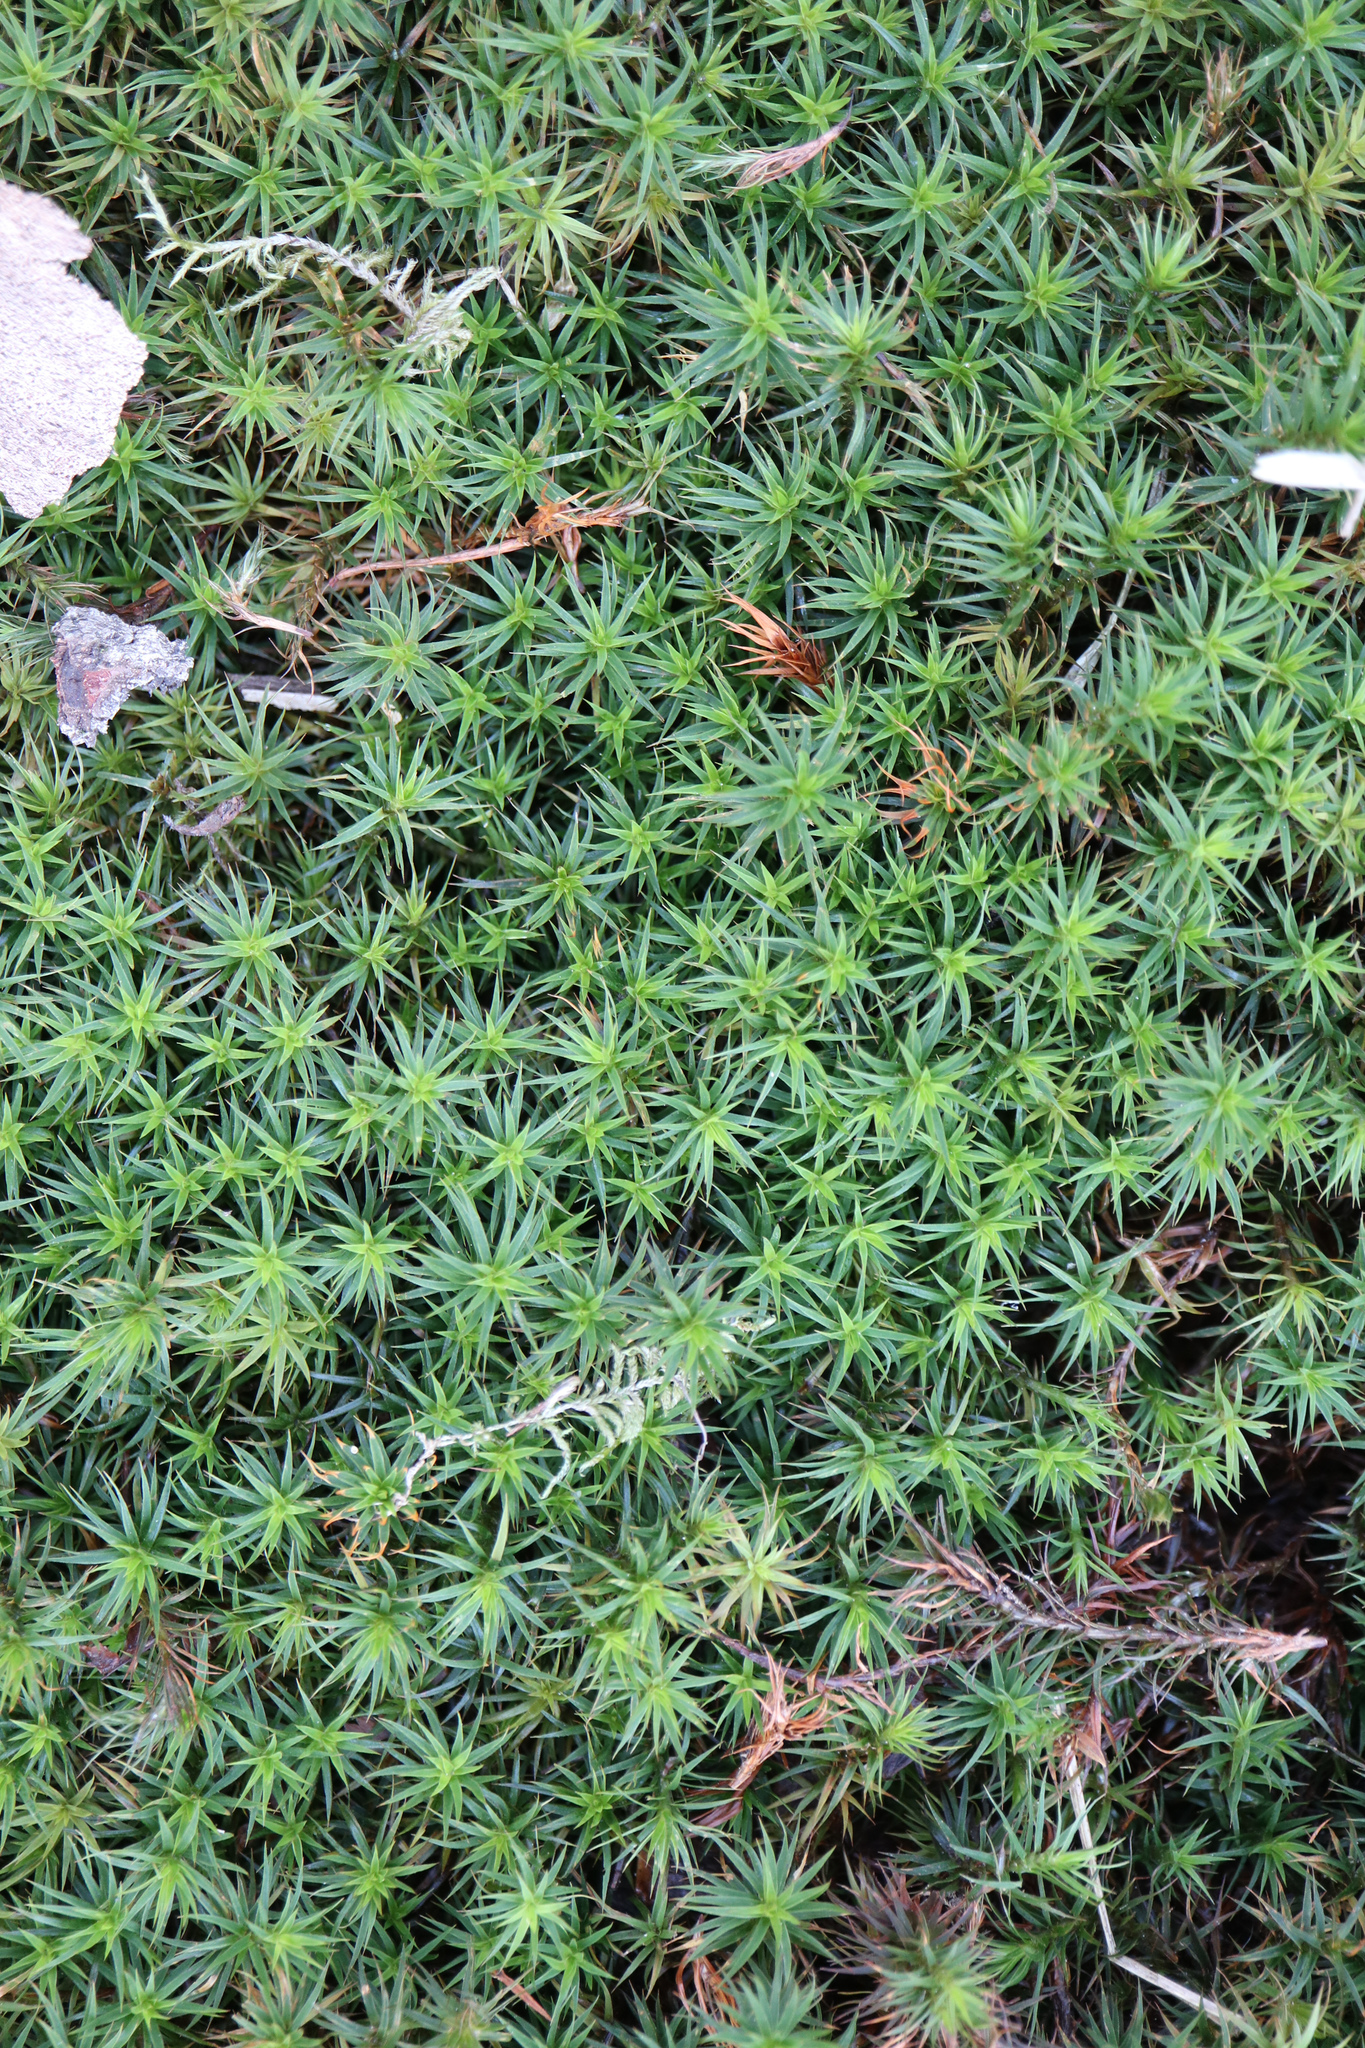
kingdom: Plantae
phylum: Bryophyta
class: Polytrichopsida
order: Polytrichales
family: Polytrichaceae
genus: Polytrichum
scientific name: Polytrichum formosum
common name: Bank haircap moss
